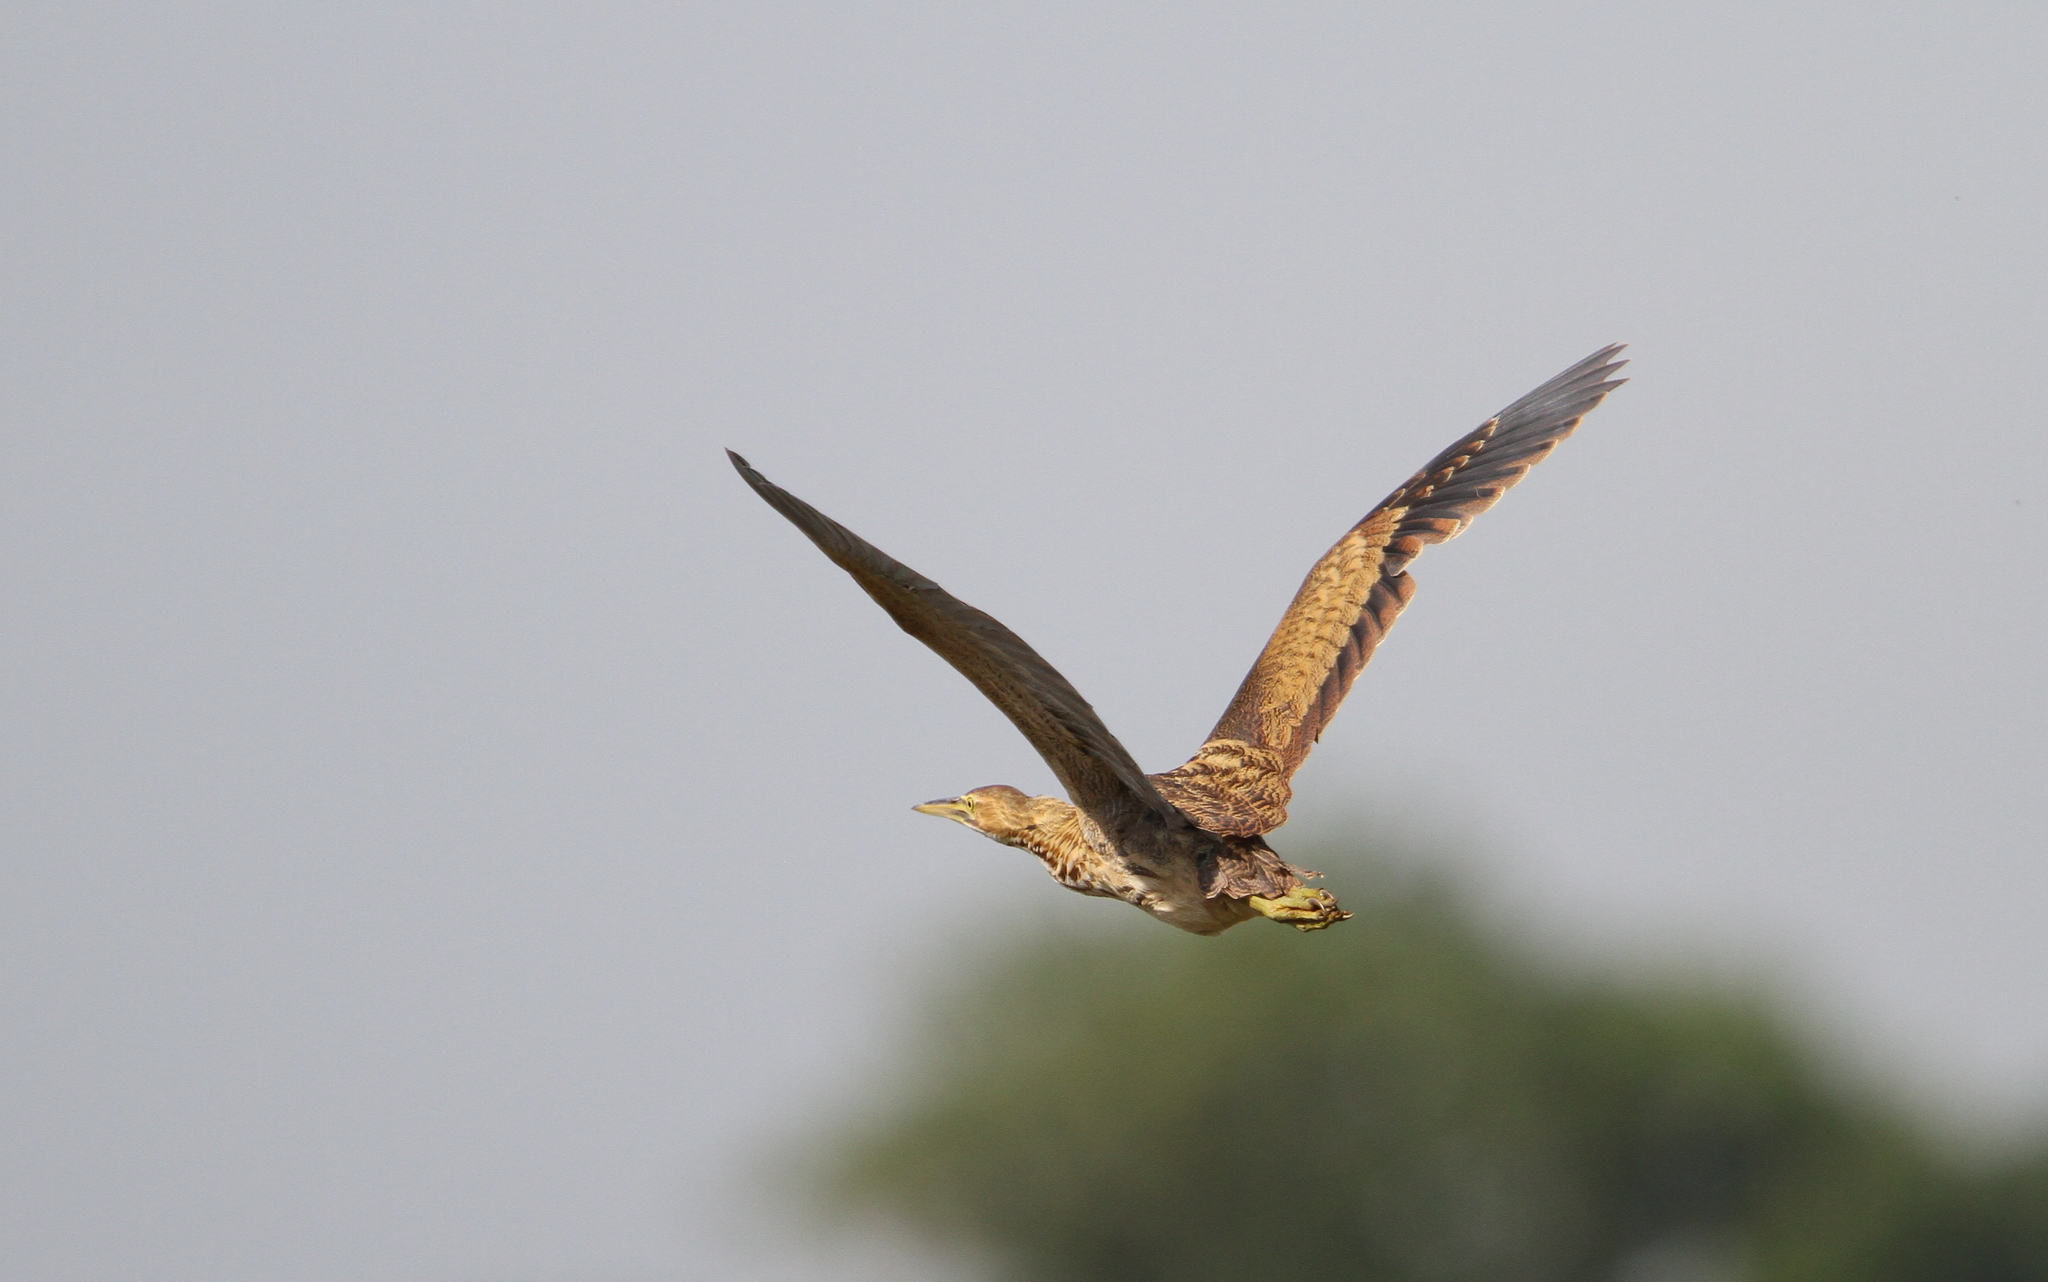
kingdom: Animalia
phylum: Chordata
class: Aves
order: Pelecaniformes
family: Ardeidae
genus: Botaurus
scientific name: Botaurus lentiginosus
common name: American bittern
